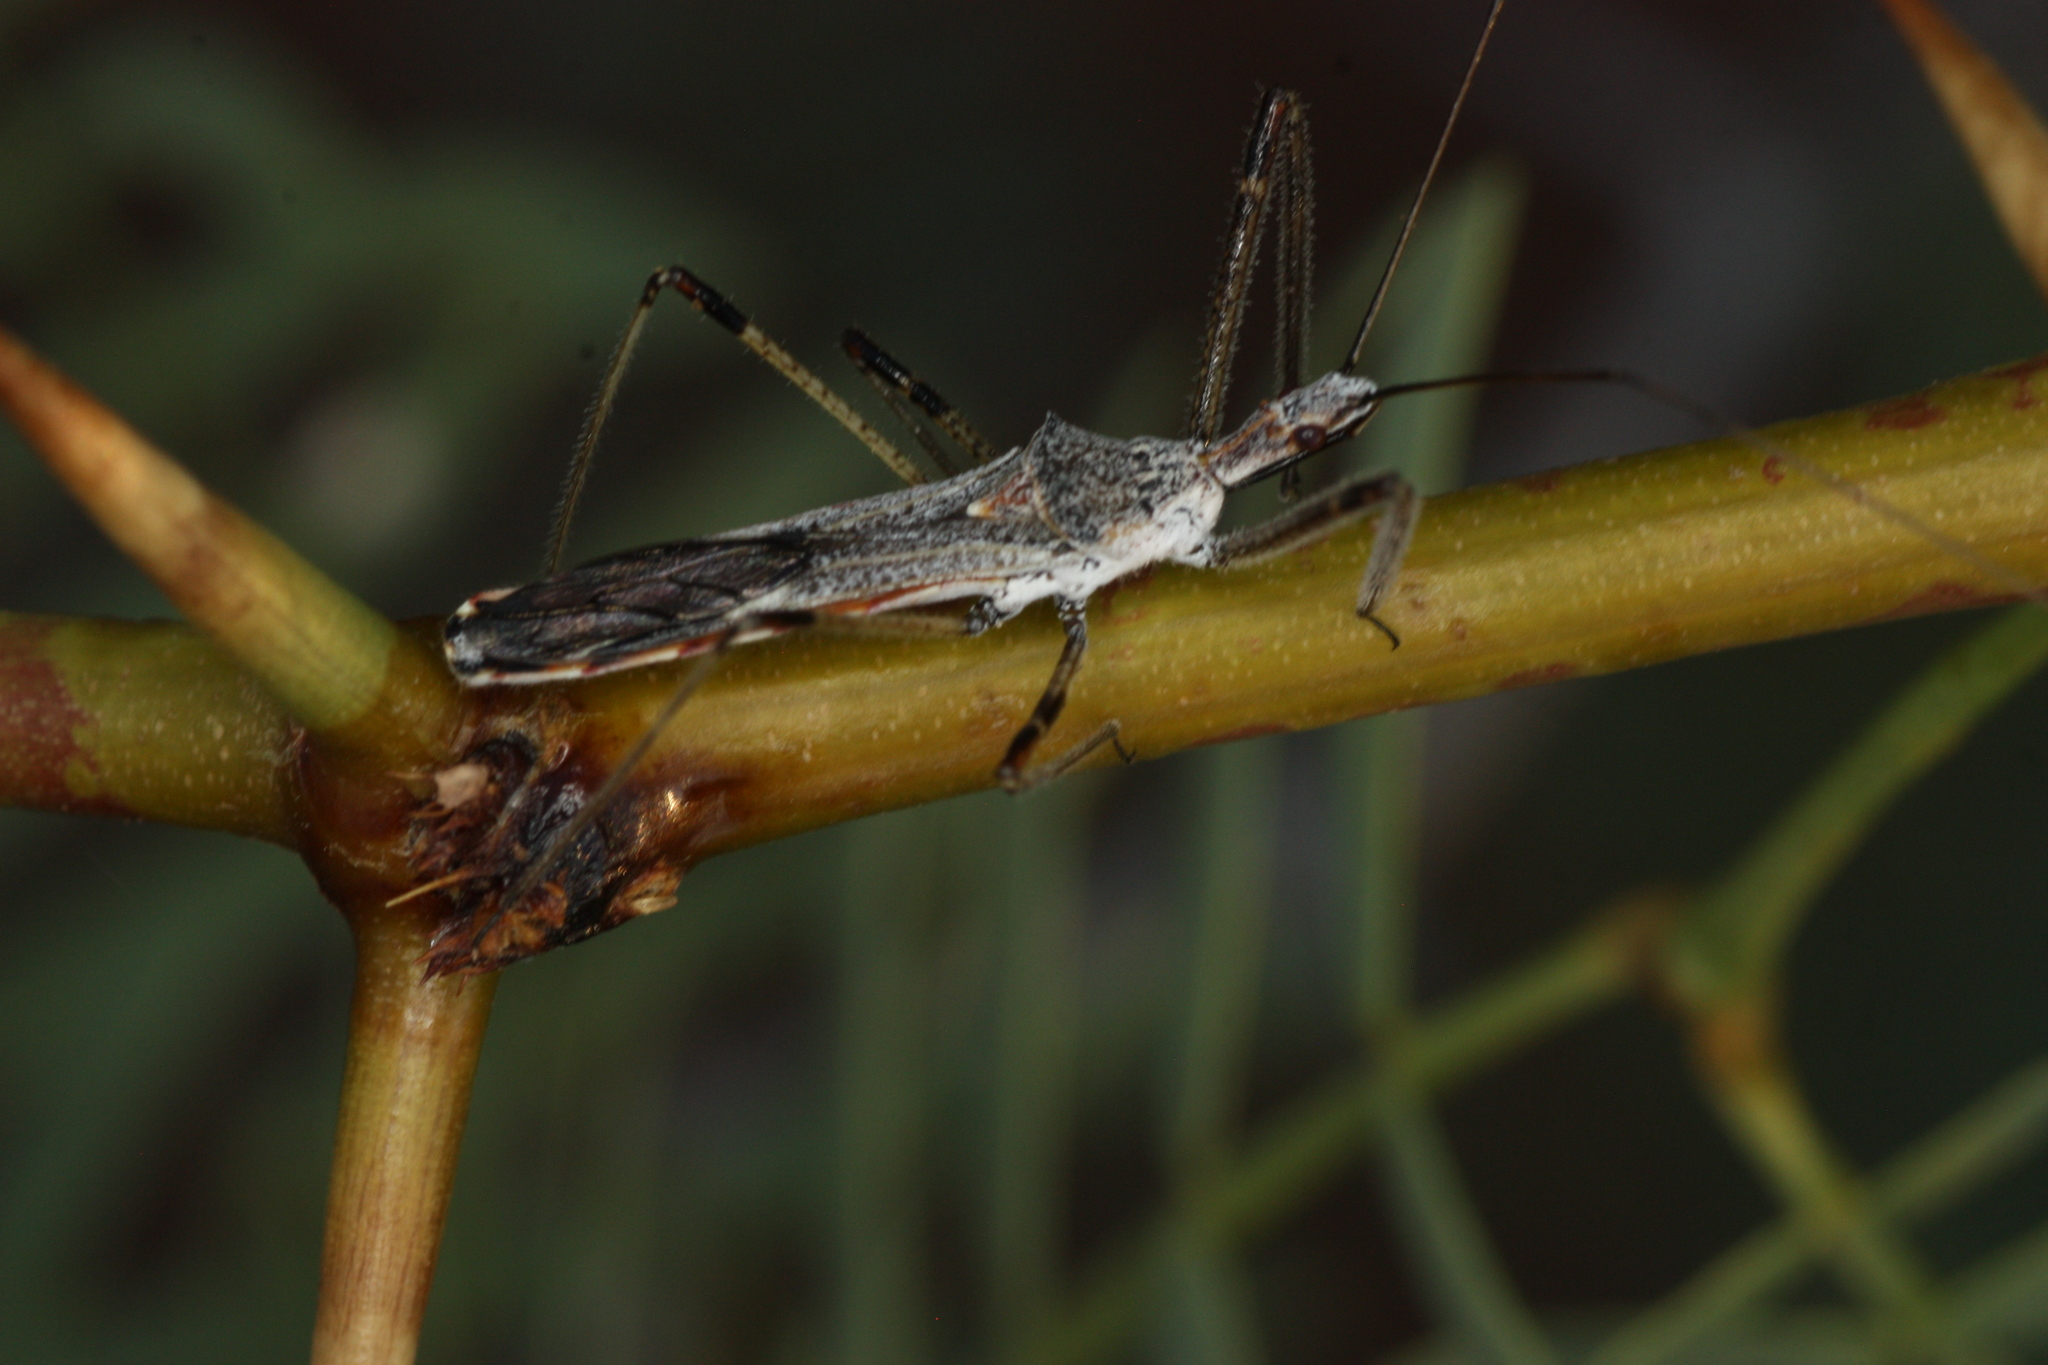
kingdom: Animalia
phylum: Arthropoda
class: Insecta
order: Hemiptera
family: Reduviidae
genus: Zelus
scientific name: Zelus tetracanthus
